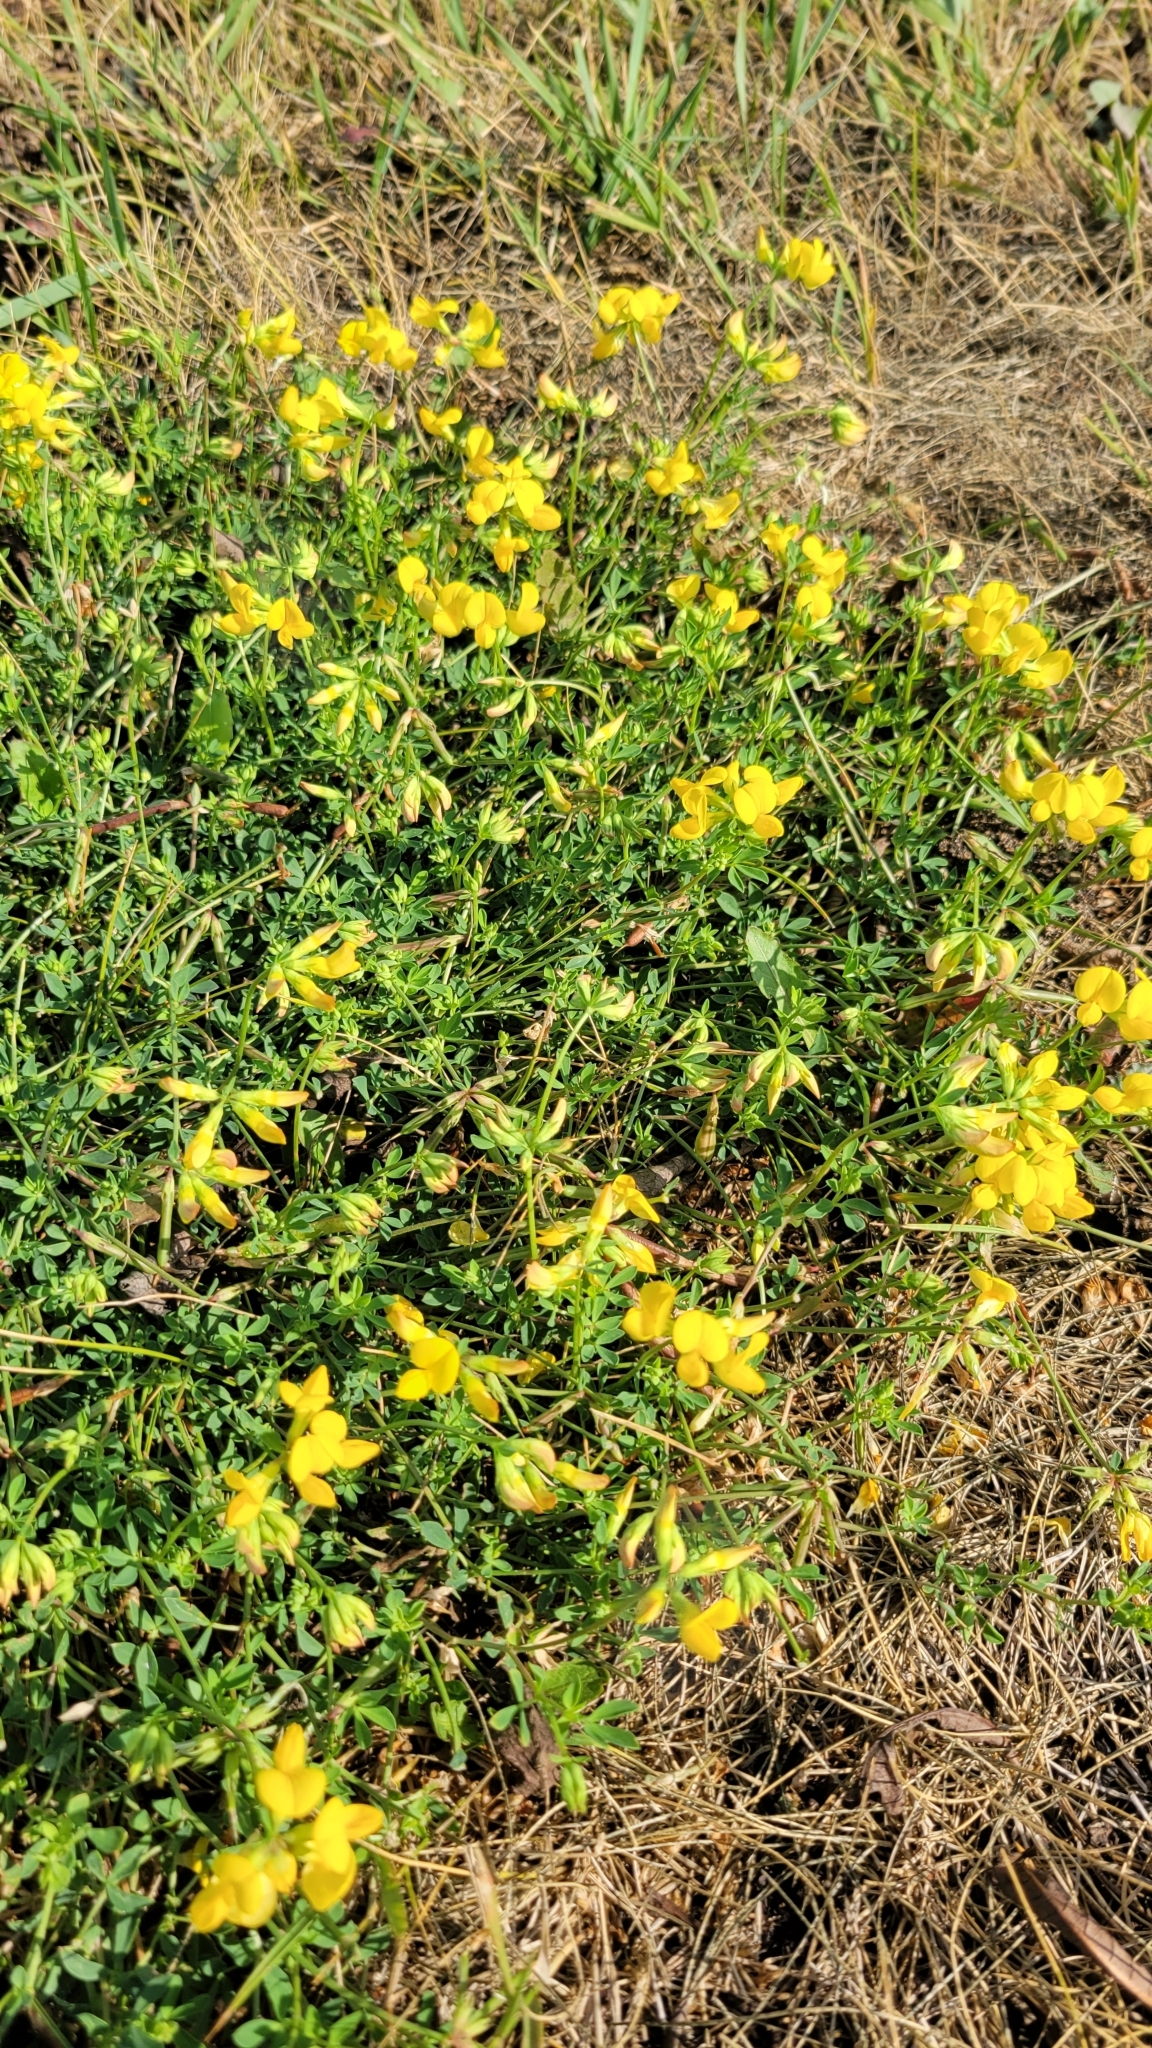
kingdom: Plantae
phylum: Tracheophyta
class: Magnoliopsida
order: Fabales
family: Fabaceae
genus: Lotus
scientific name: Lotus corniculatus
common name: Common bird's-foot-trefoil
